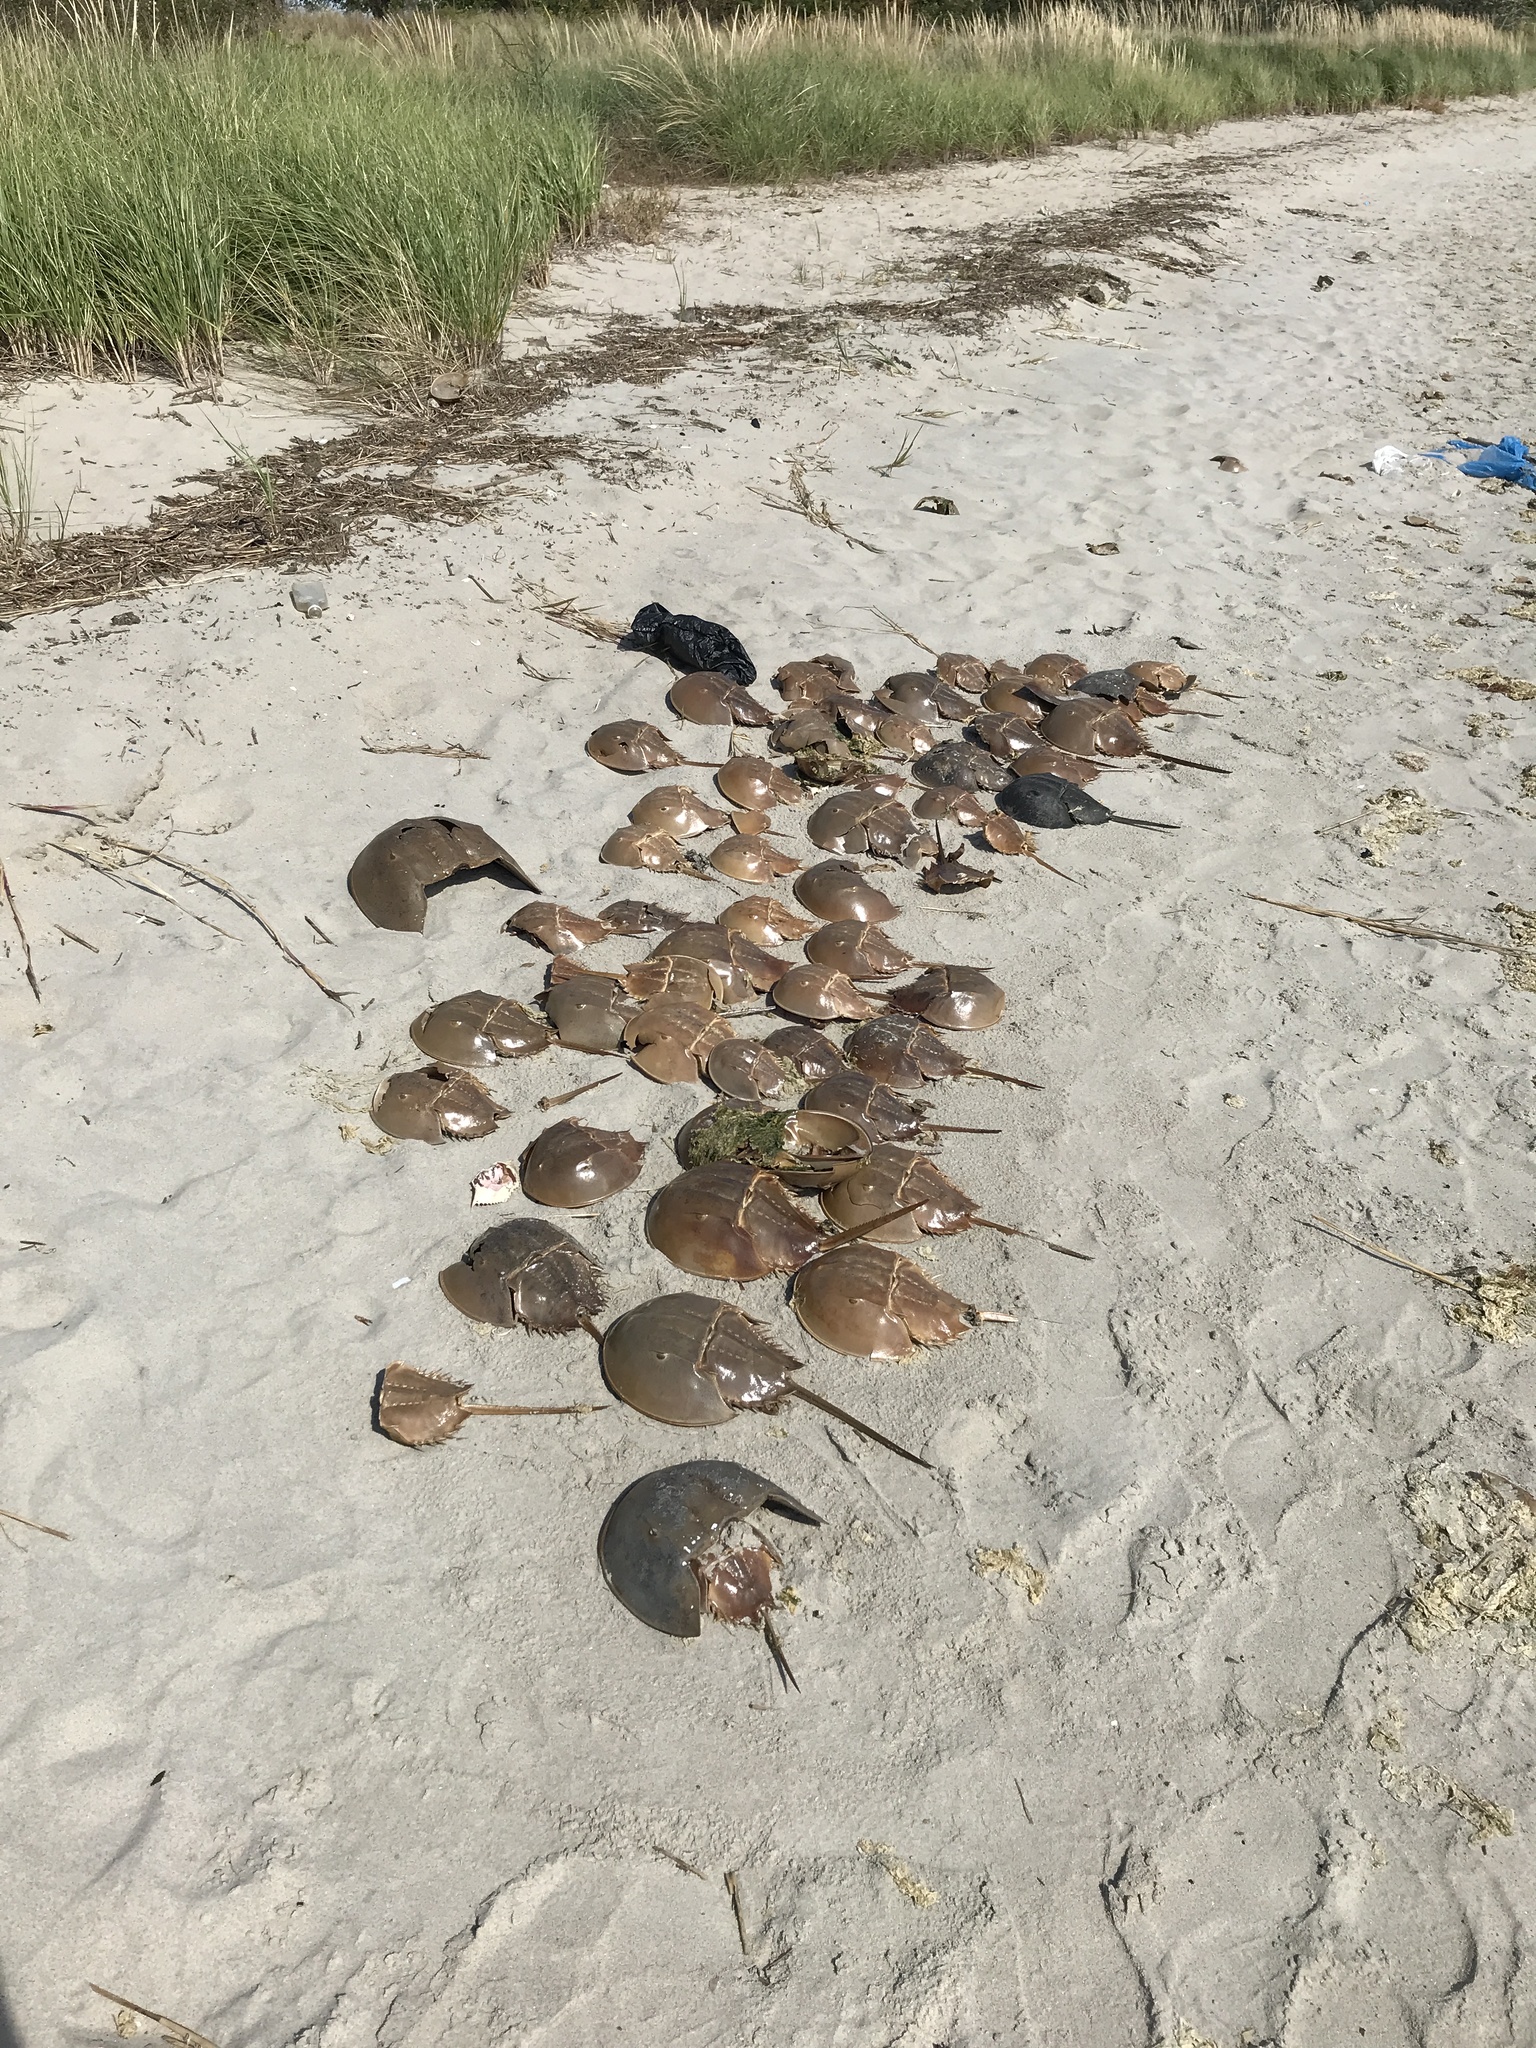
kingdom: Animalia
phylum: Arthropoda
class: Merostomata
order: Xiphosurida
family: Limulidae
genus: Limulus
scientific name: Limulus polyphemus
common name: Horseshoe crab
